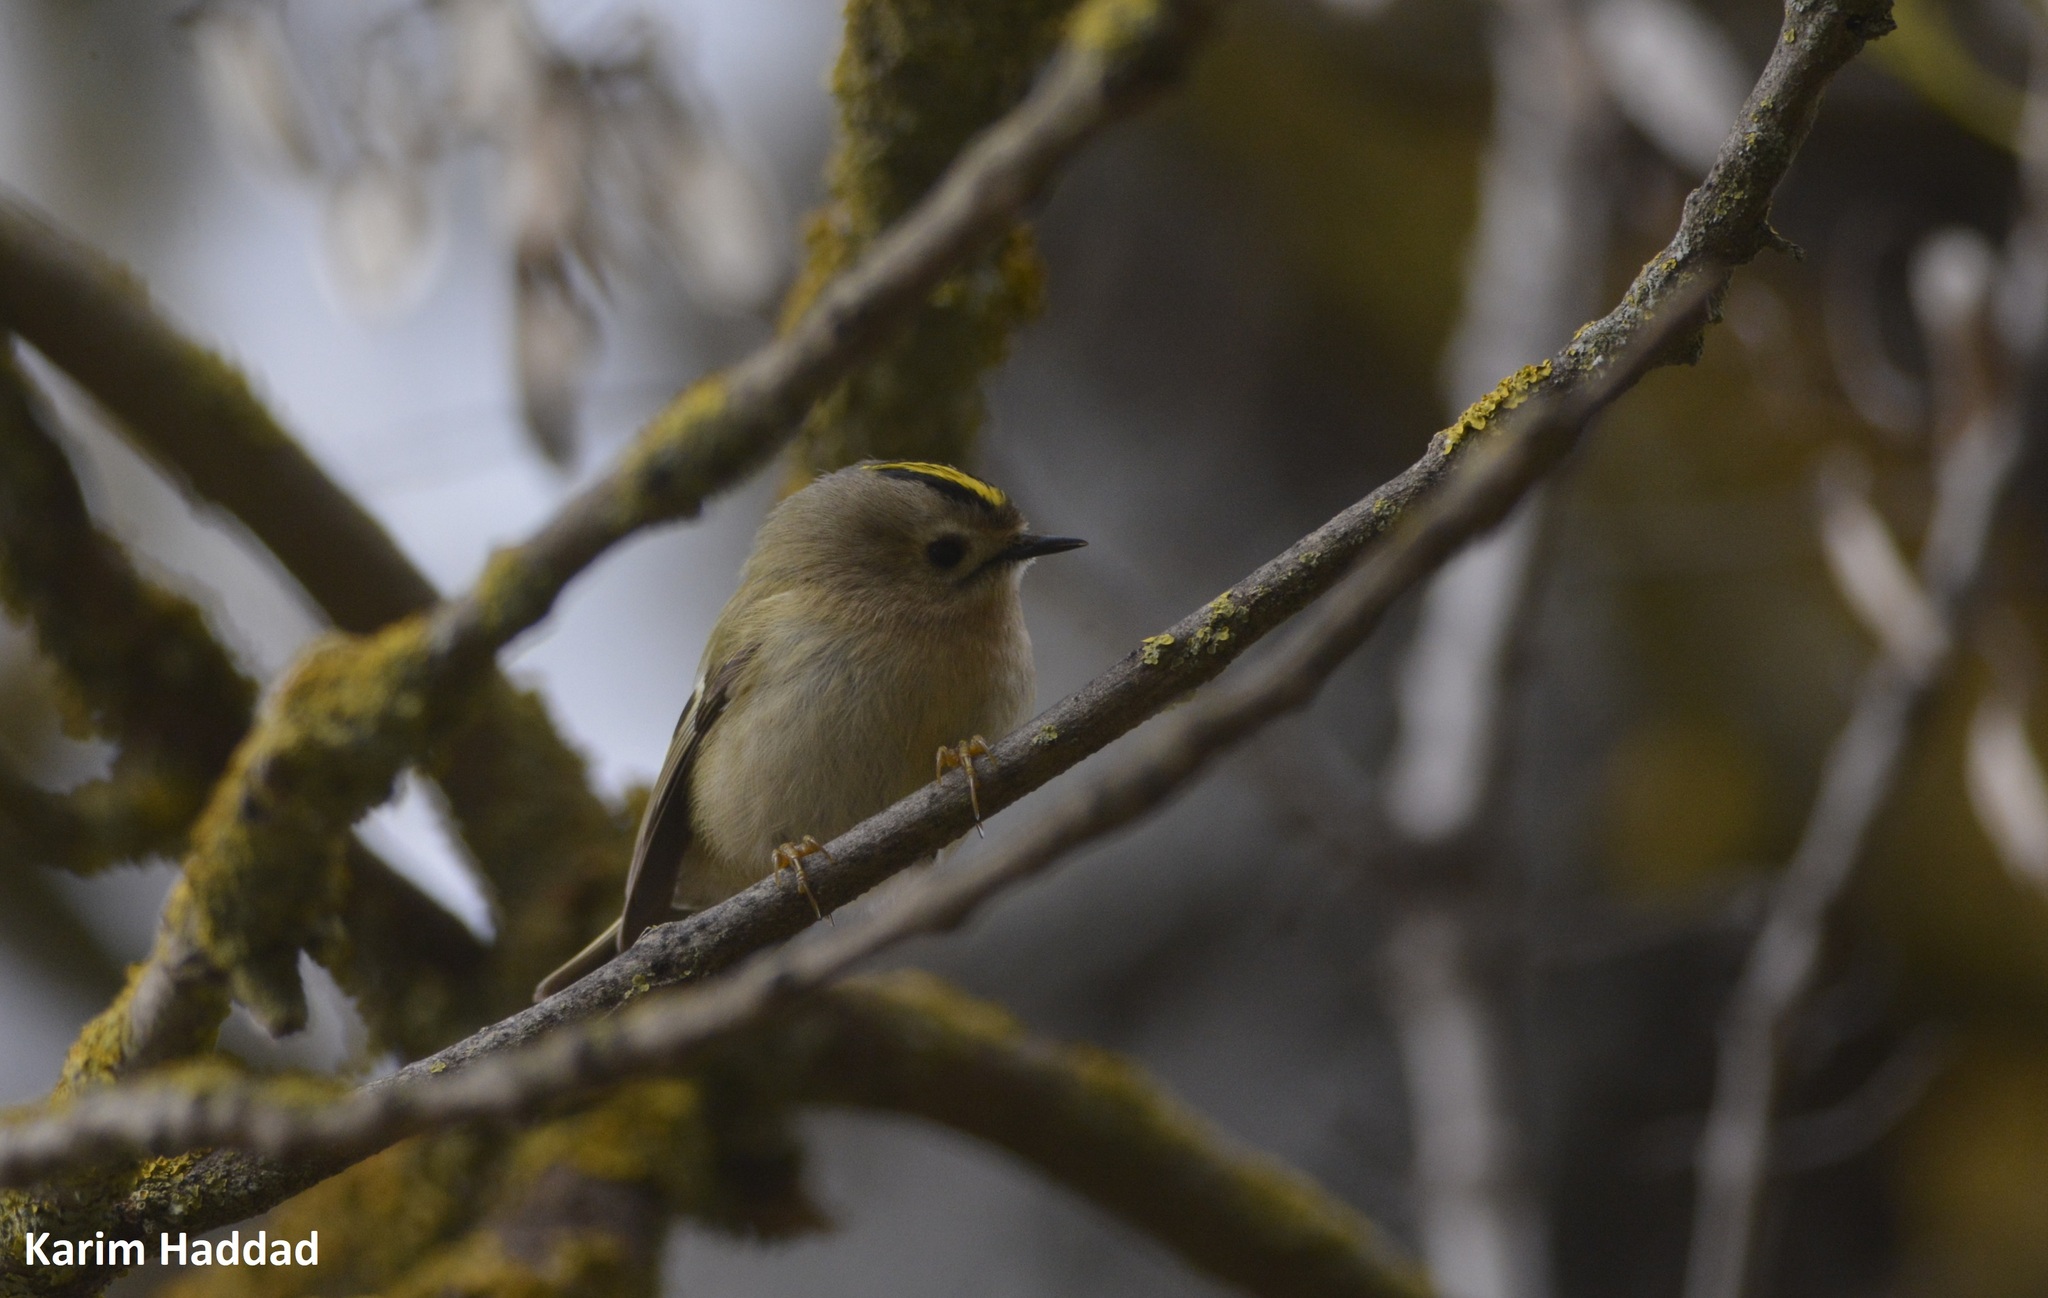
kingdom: Animalia
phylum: Chordata
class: Aves
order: Passeriformes
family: Regulidae
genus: Regulus
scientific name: Regulus regulus
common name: Goldcrest
